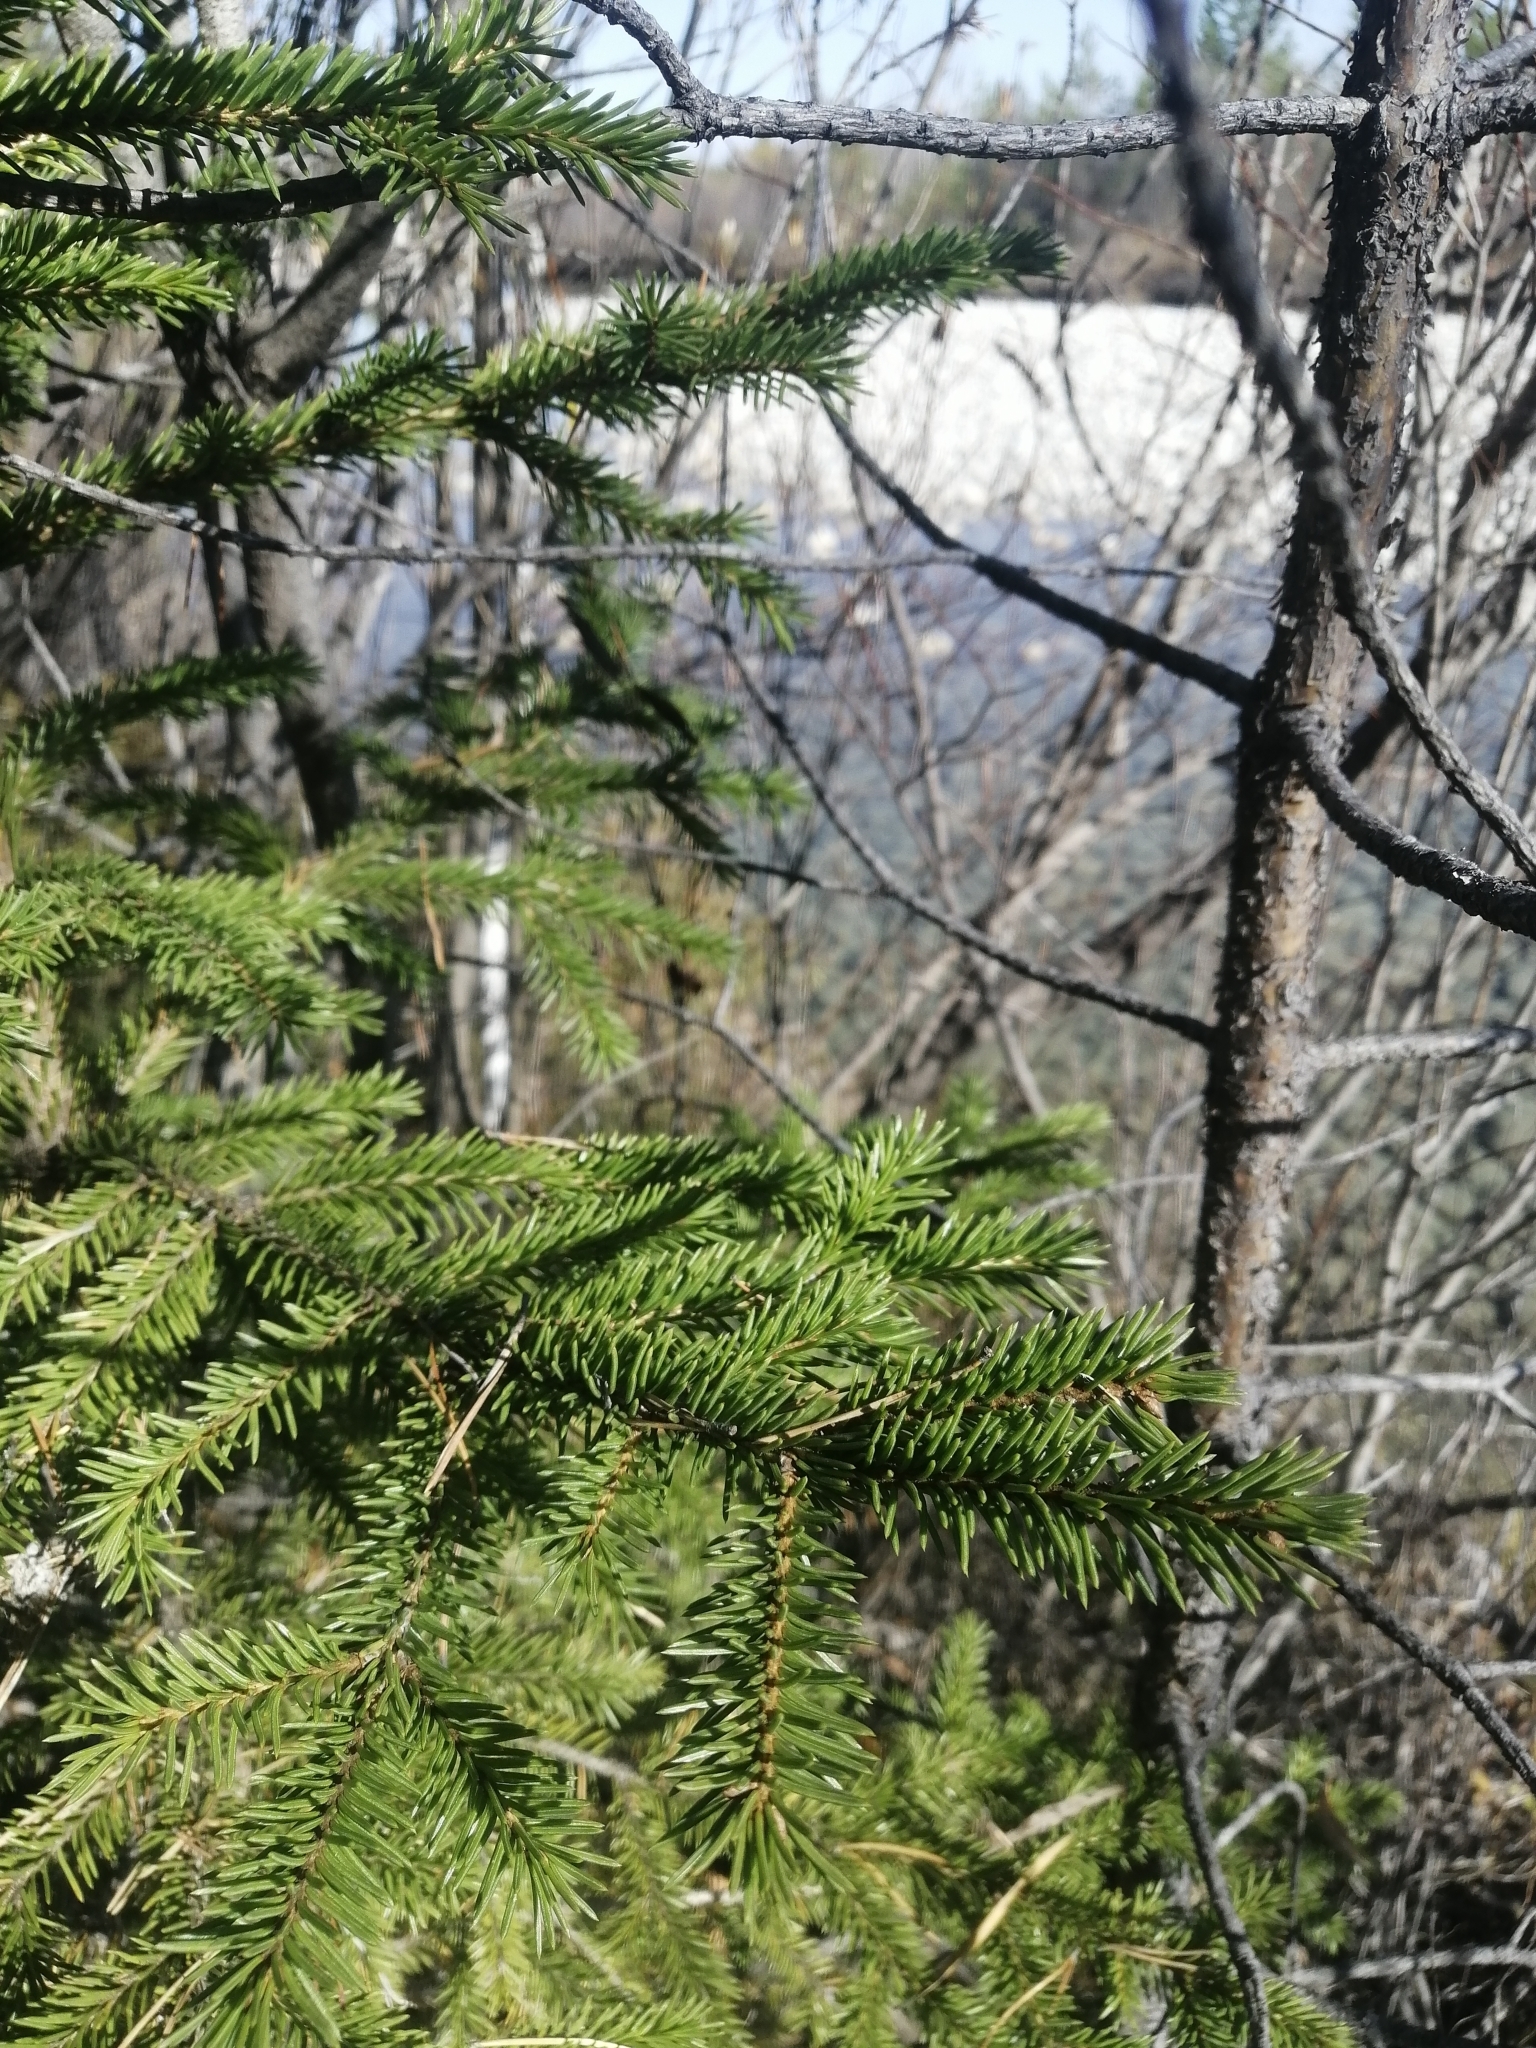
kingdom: Plantae
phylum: Tracheophyta
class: Pinopsida
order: Pinales
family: Pinaceae
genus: Picea
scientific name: Picea obovata
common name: Siberian spruce
